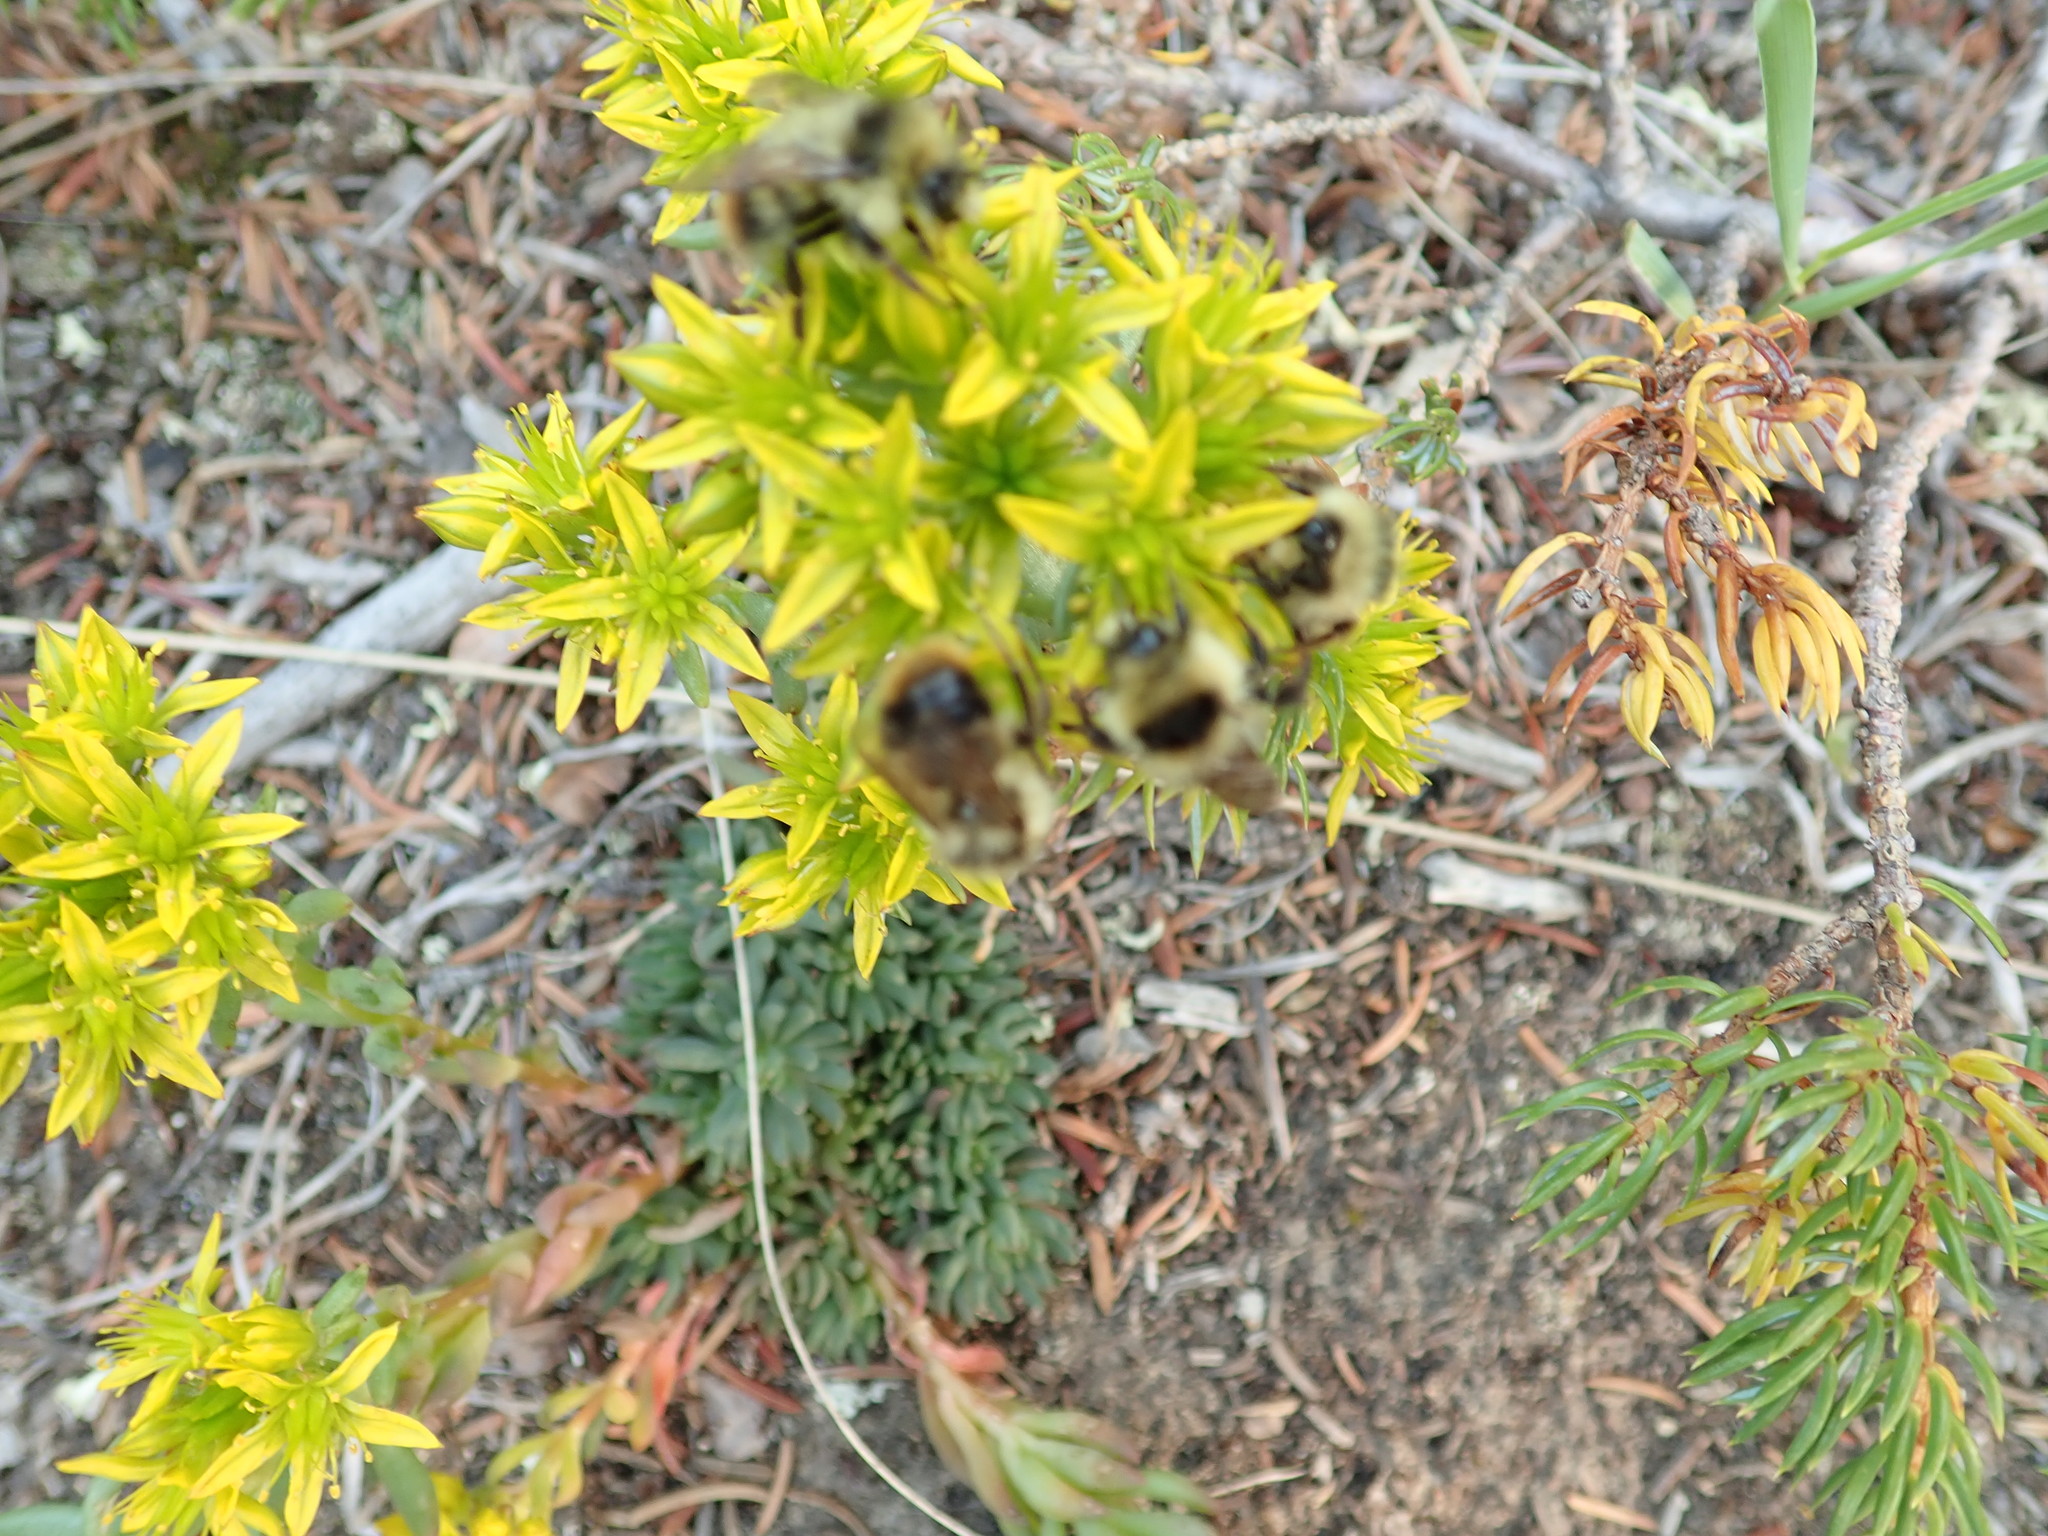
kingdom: Plantae
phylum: Tracheophyta
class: Magnoliopsida
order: Saxifragales
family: Crassulaceae
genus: Sedum
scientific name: Sedum lanceolatum
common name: Common stonecrop
